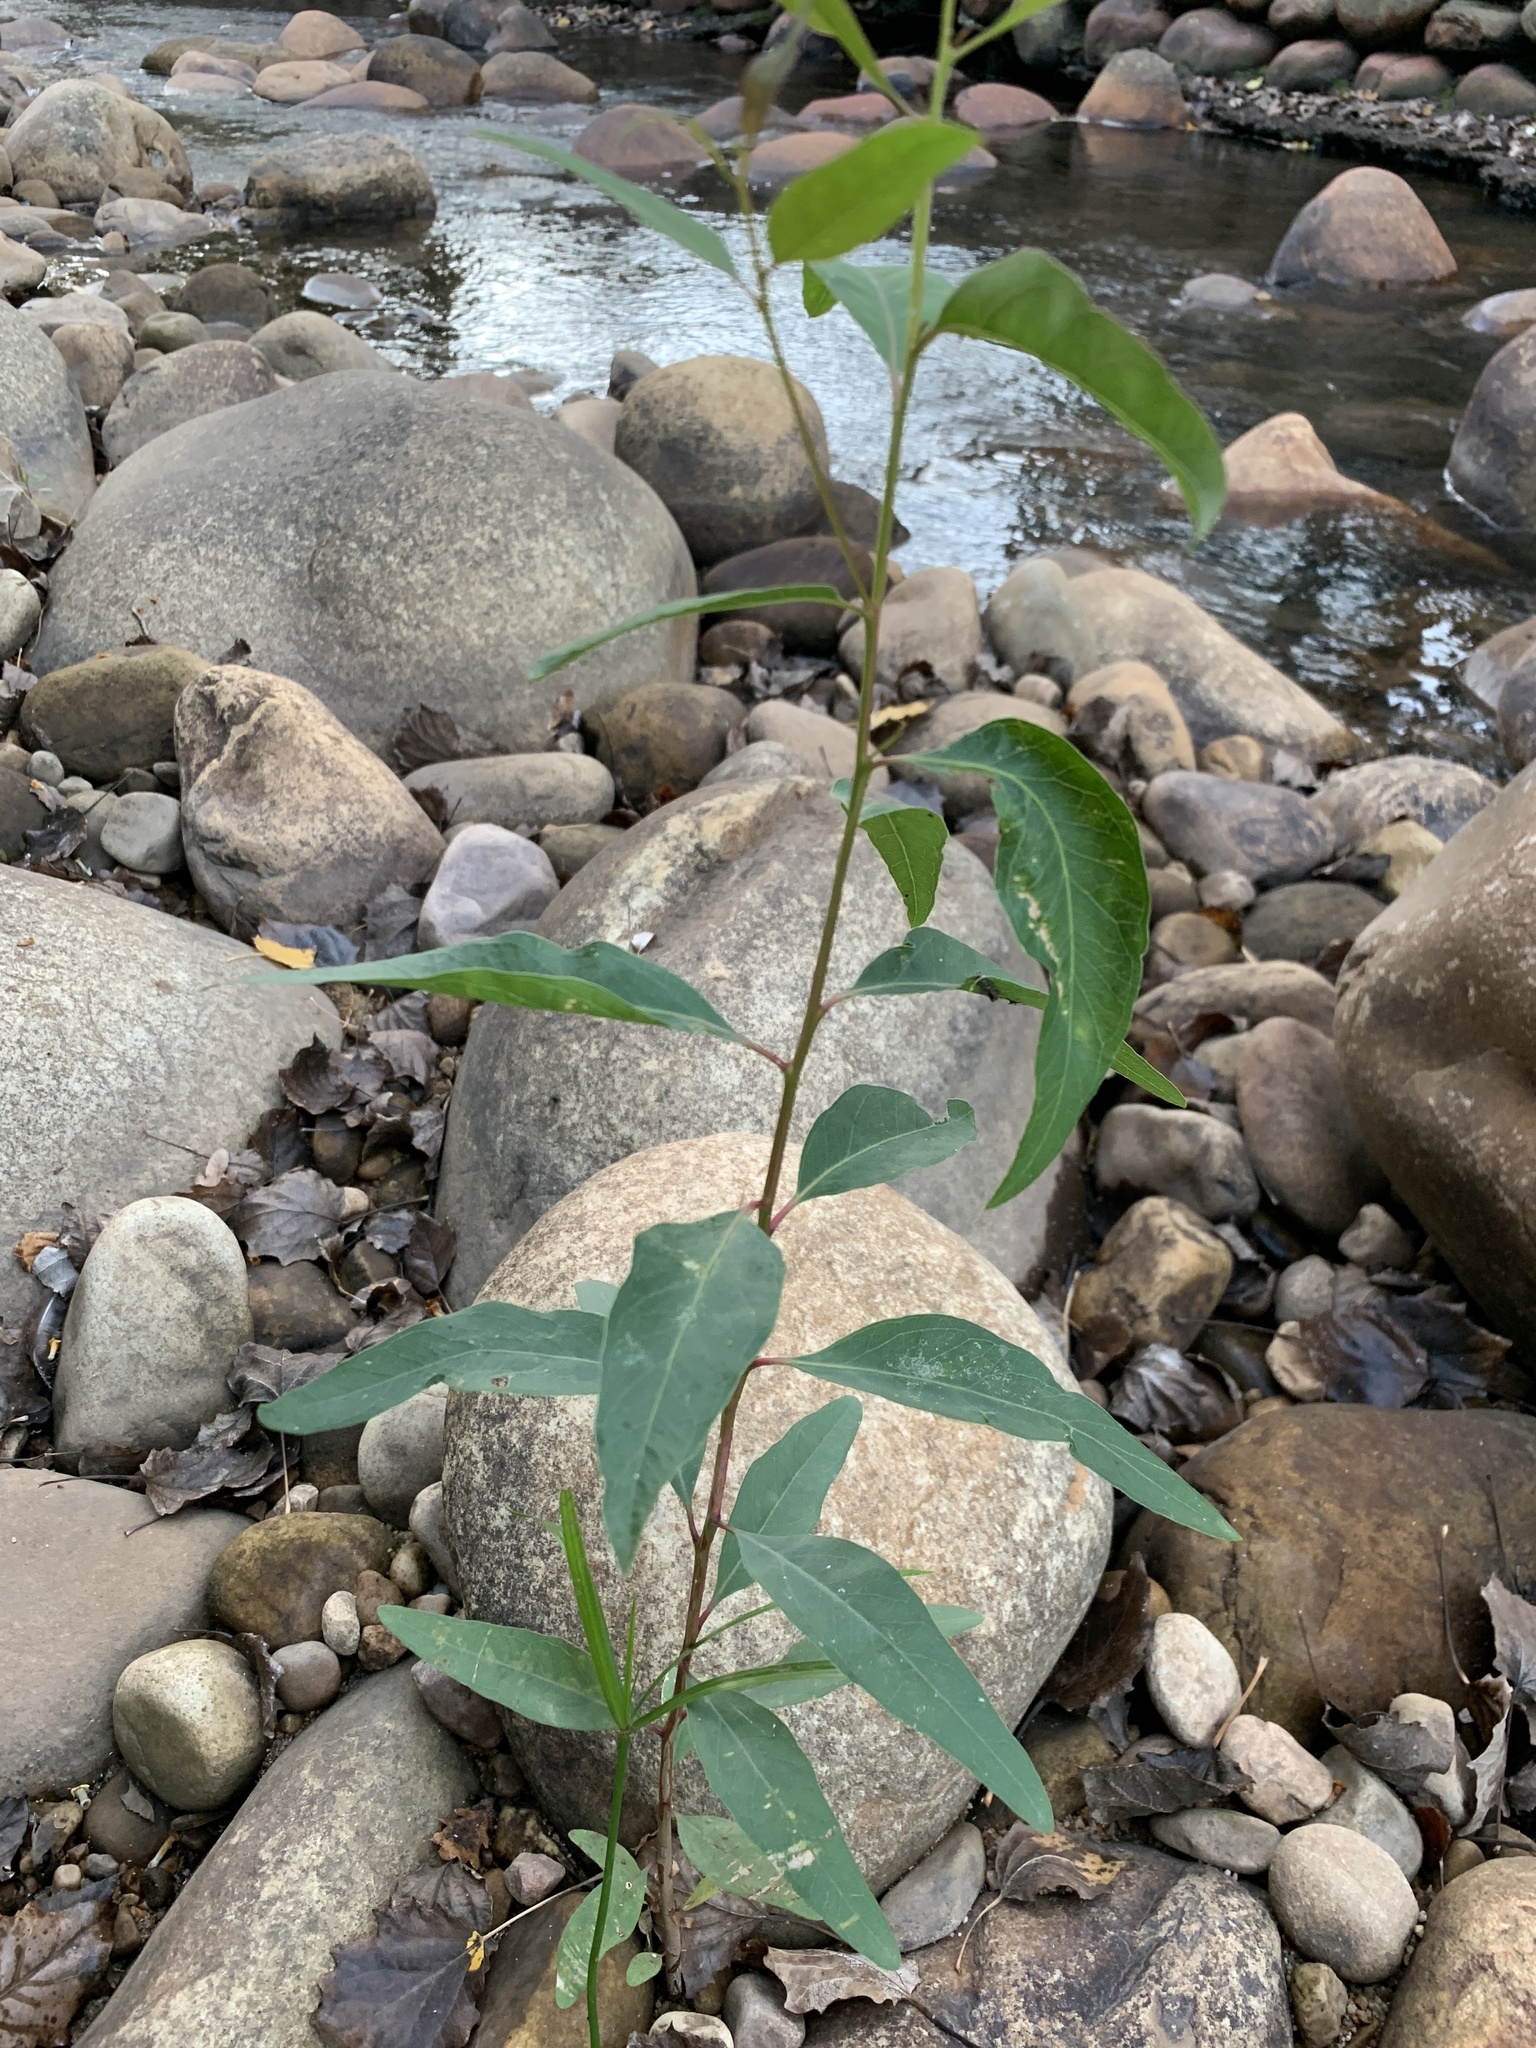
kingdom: Plantae
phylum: Tracheophyta
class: Magnoliopsida
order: Myrtales
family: Myrtaceae
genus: Eucalyptus
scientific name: Eucalyptus camaldulensis
